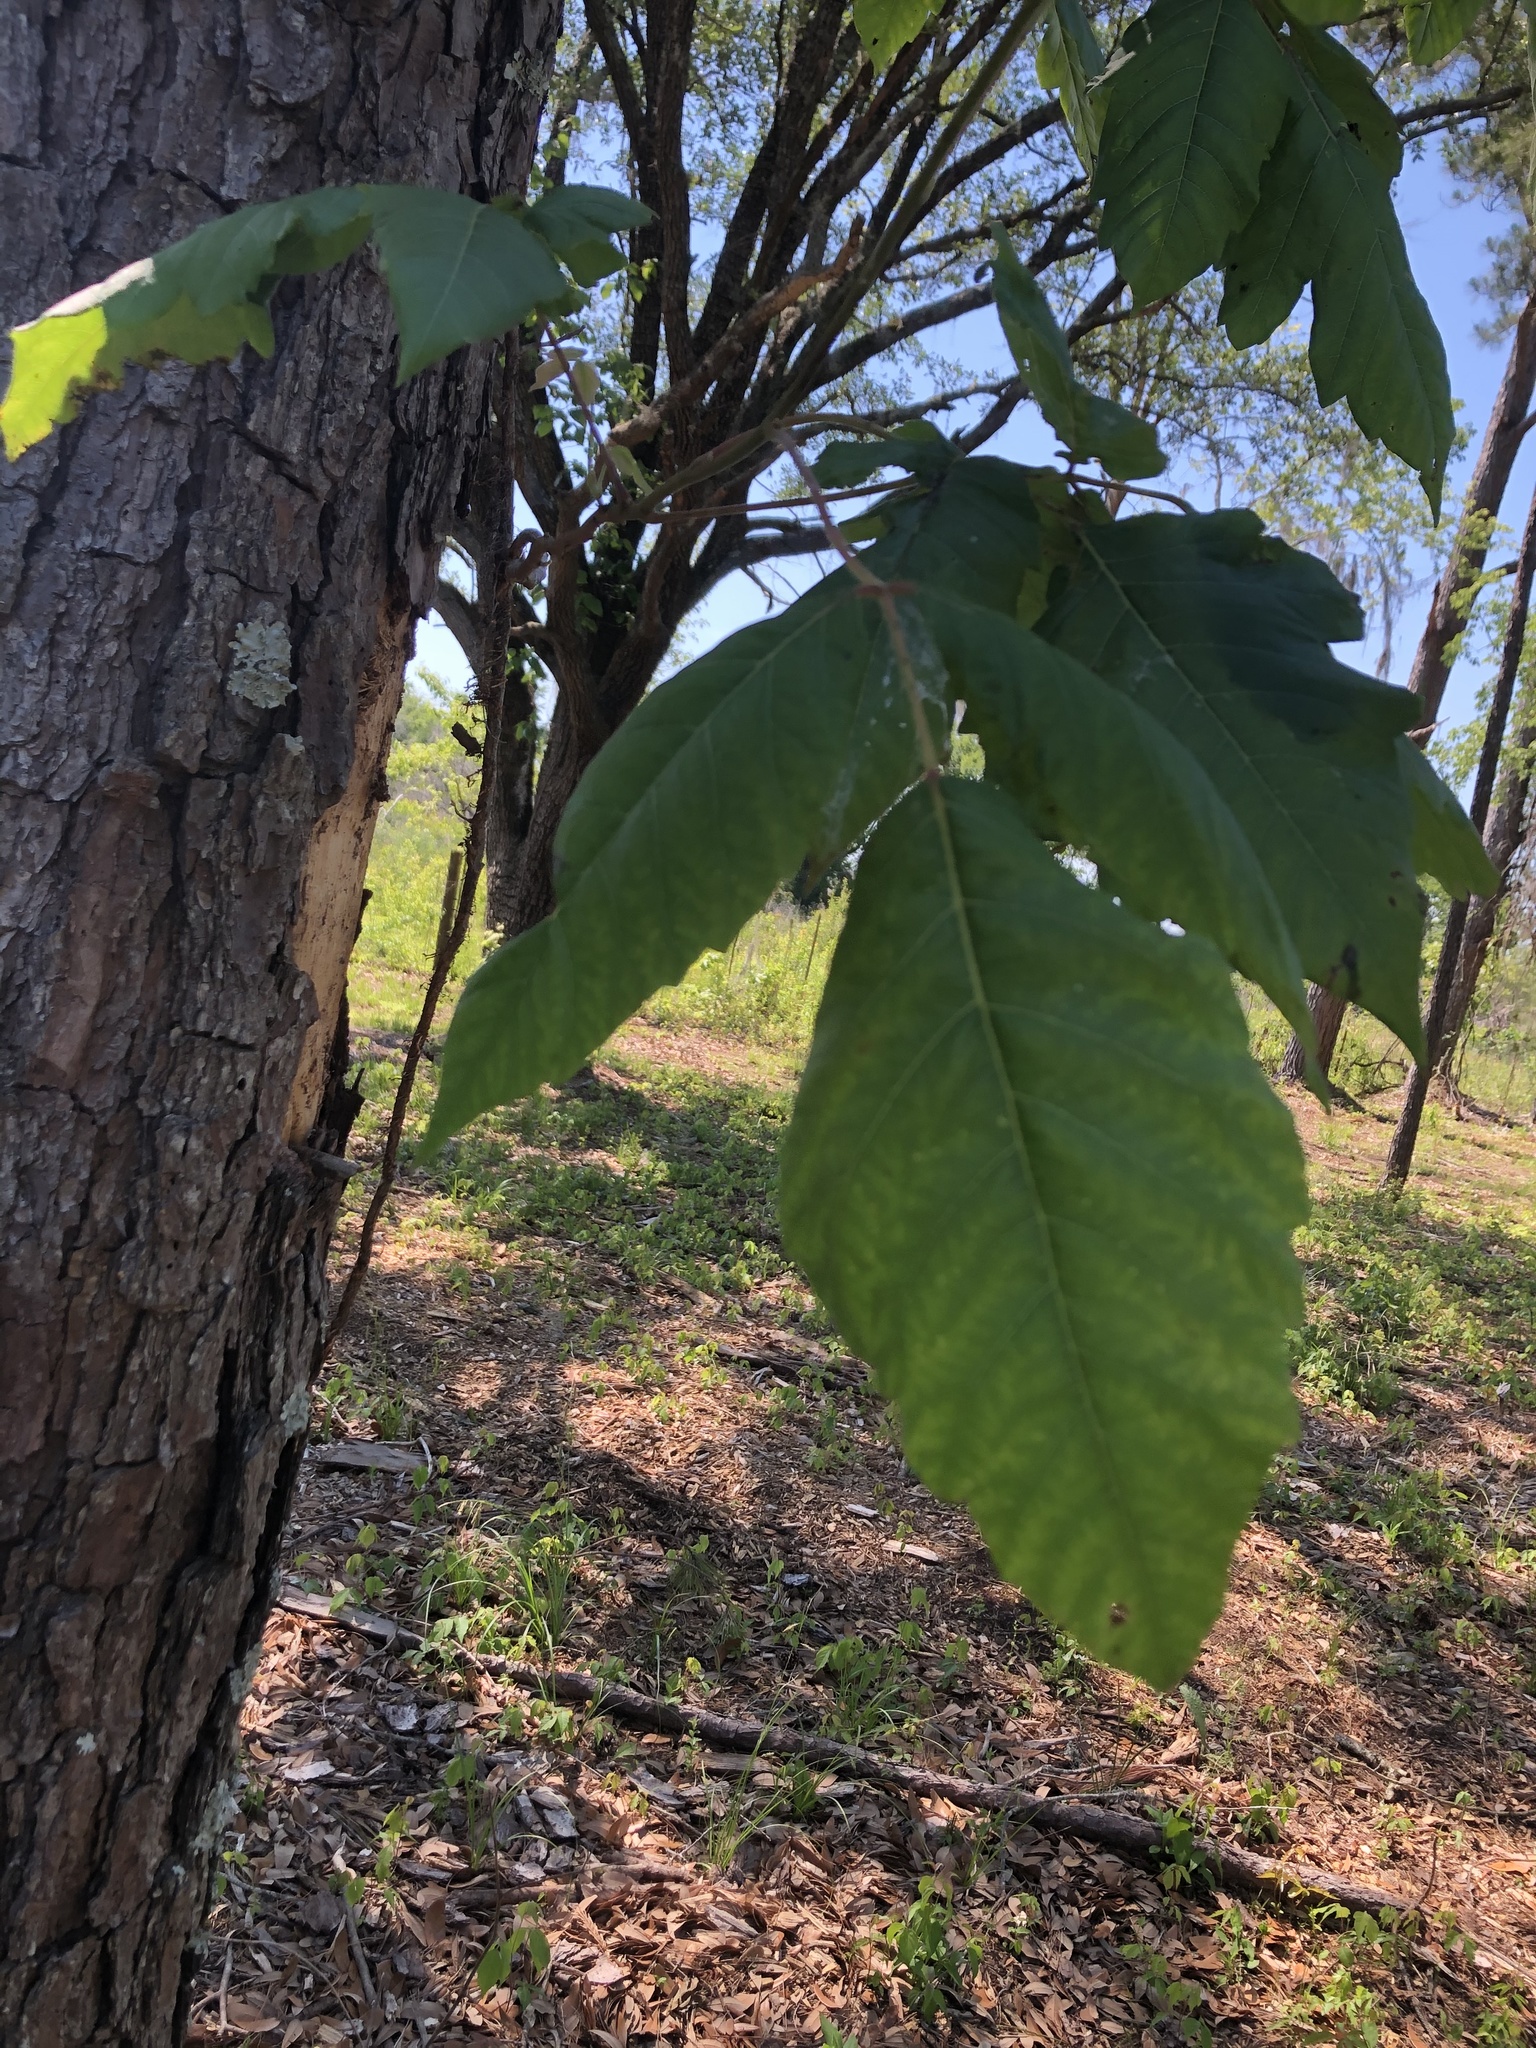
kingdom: Plantae
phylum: Tracheophyta
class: Magnoliopsida
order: Sapindales
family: Anacardiaceae
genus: Toxicodendron
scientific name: Toxicodendron radicans
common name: Poison ivy
